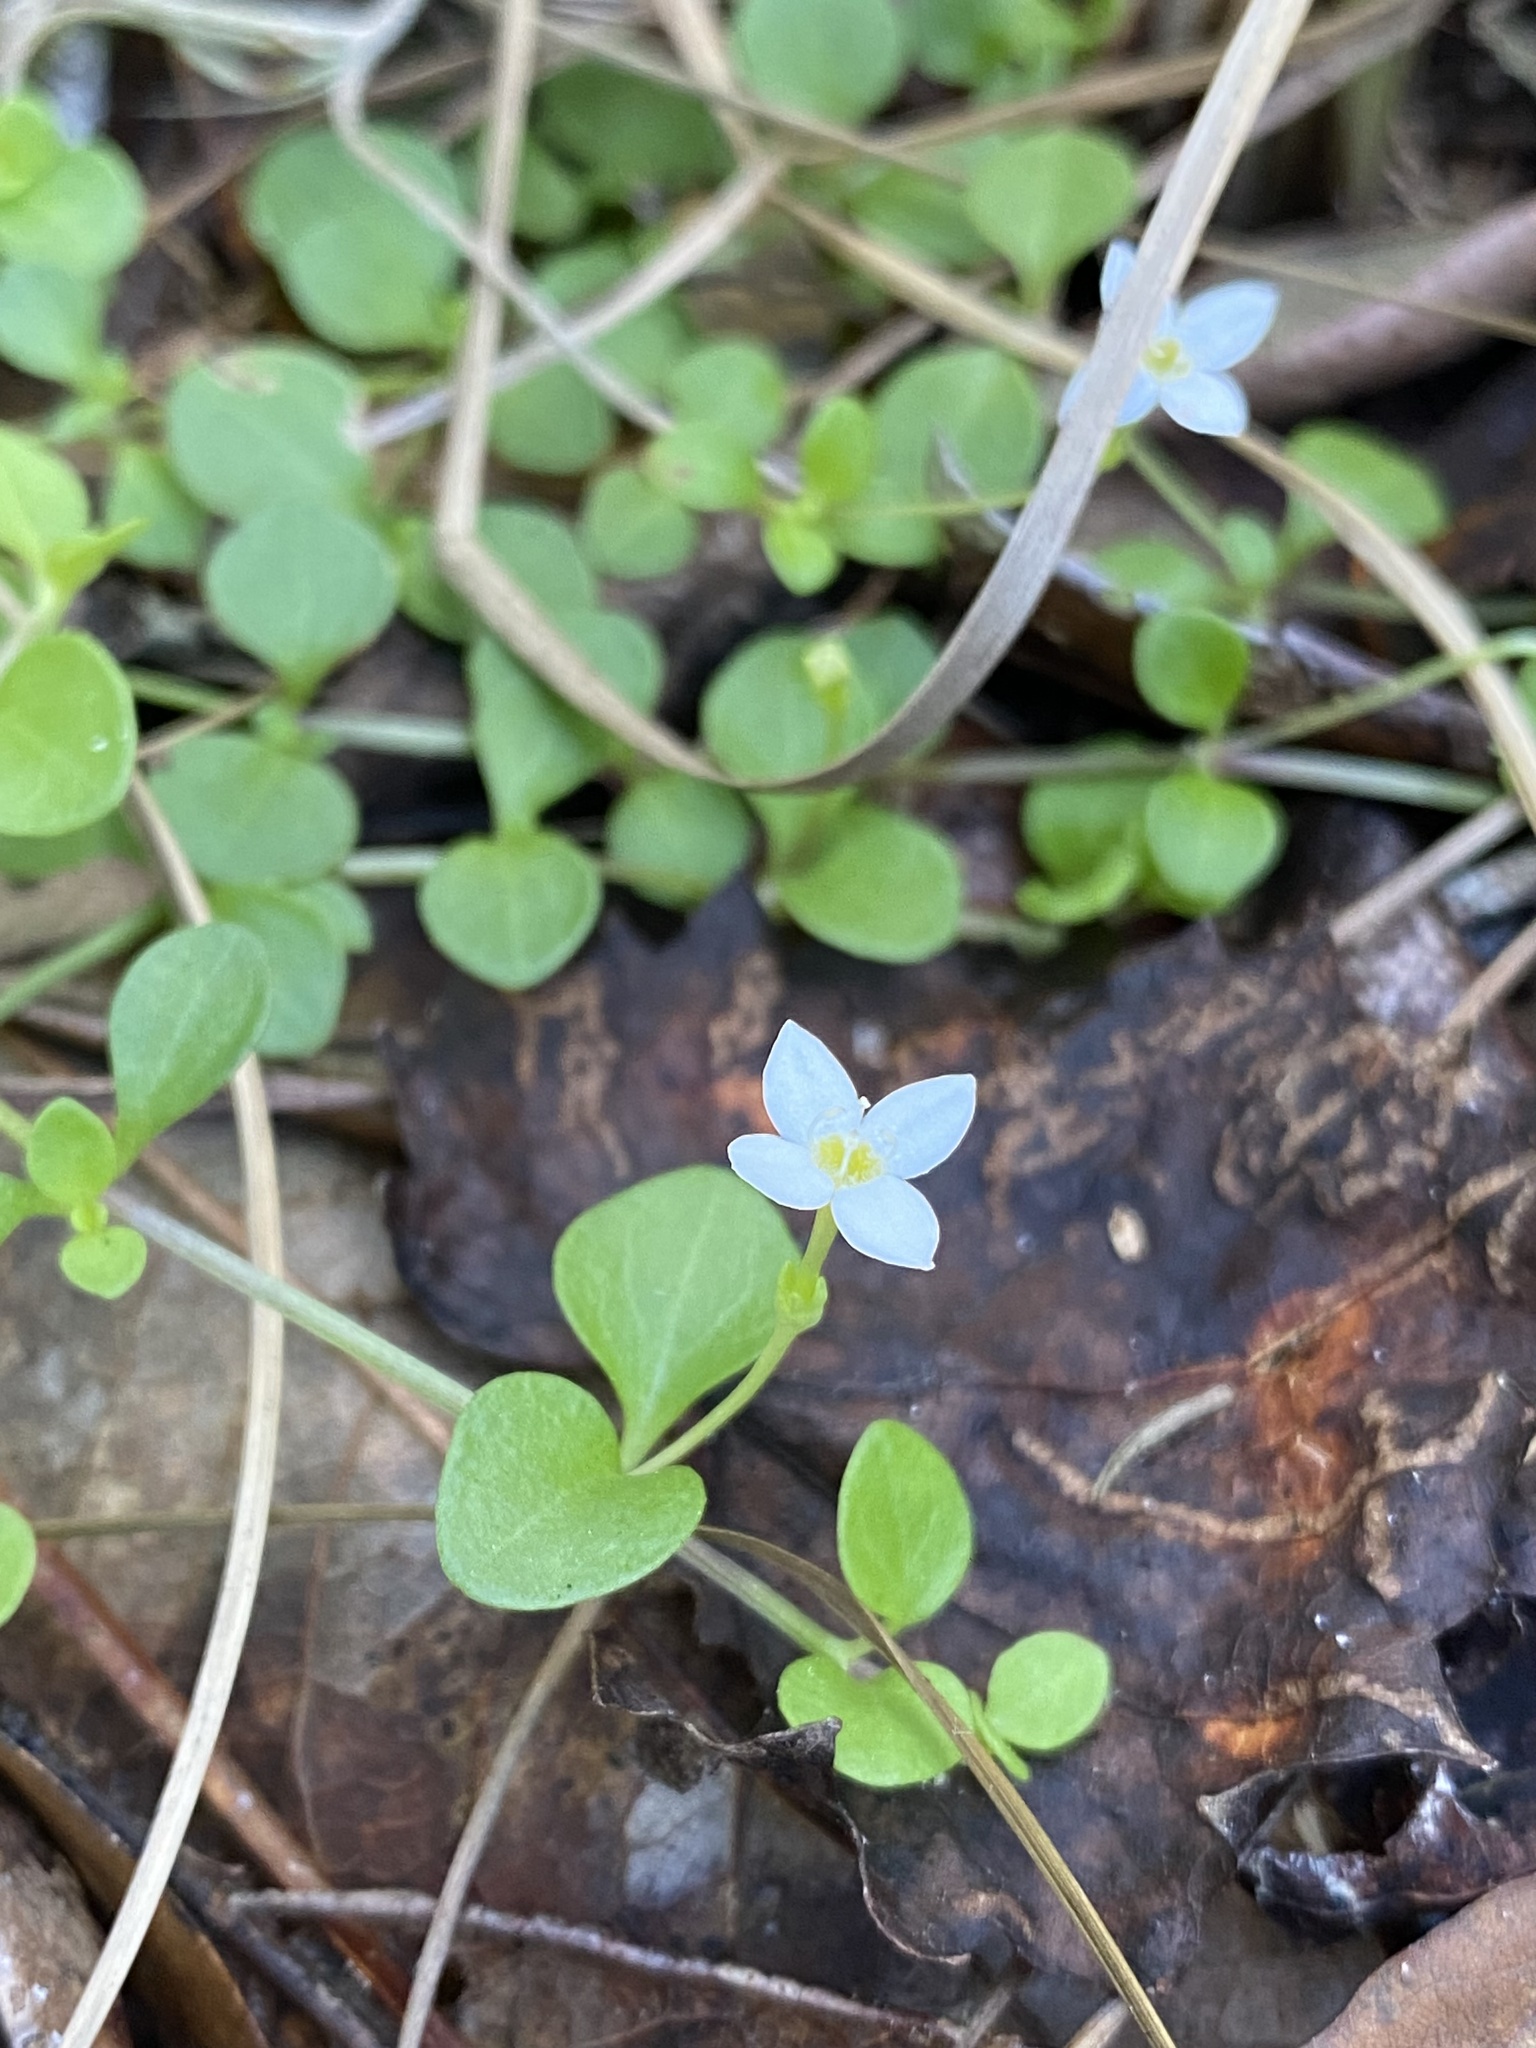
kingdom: Plantae
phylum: Tracheophyta
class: Magnoliopsida
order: Gentianales
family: Rubiaceae
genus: Houstonia
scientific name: Houstonia procumbens
